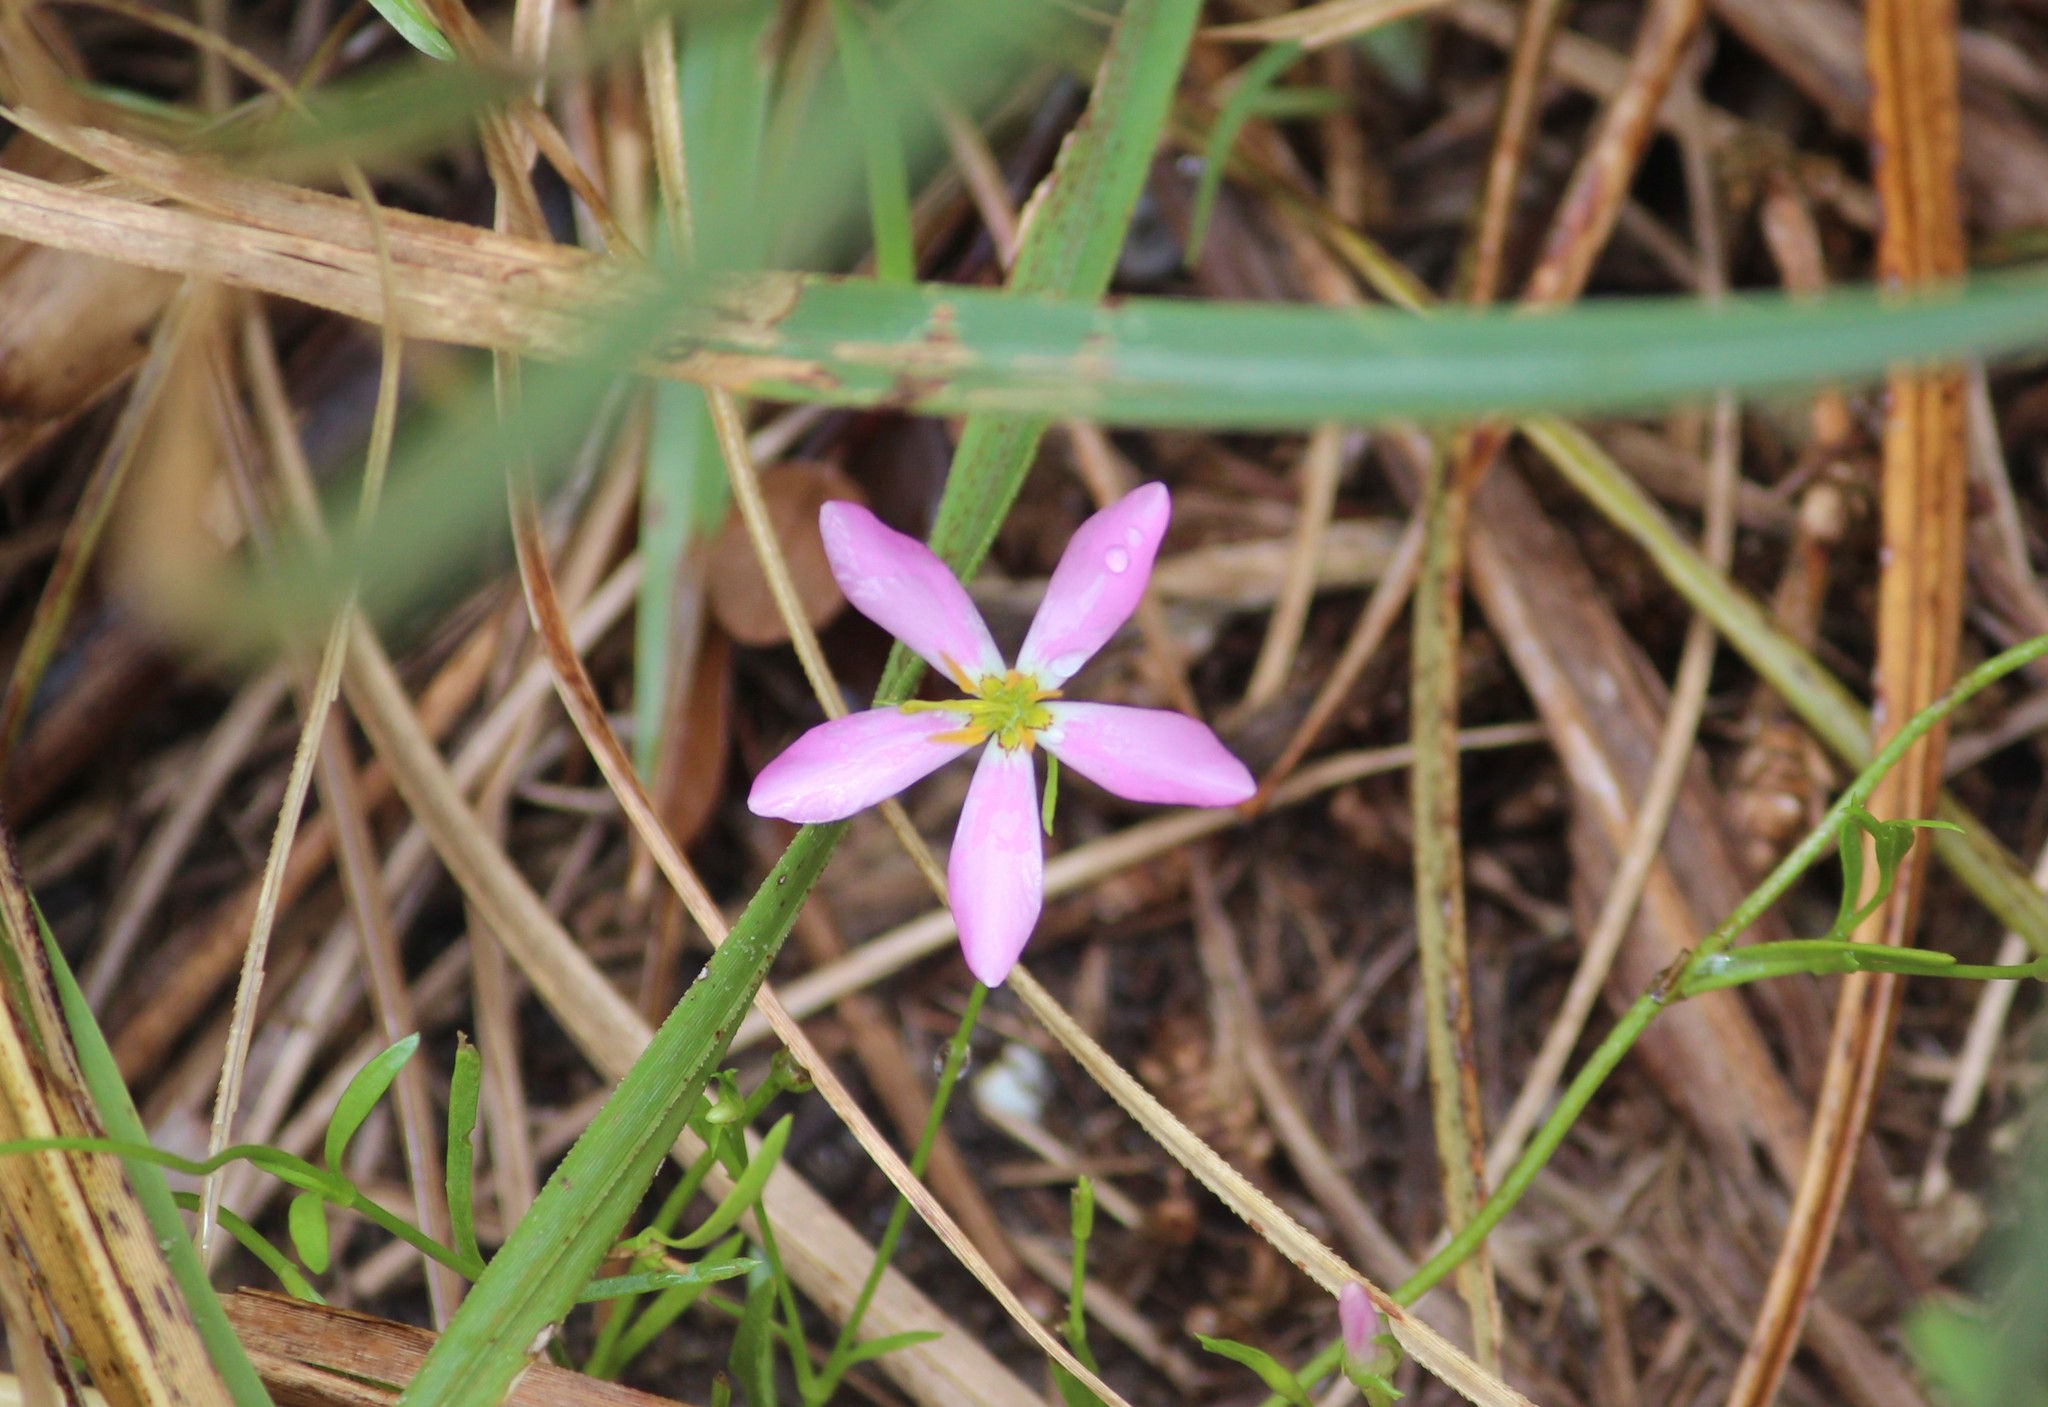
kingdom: Plantae
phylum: Tracheophyta
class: Magnoliopsida
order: Gentianales
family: Gentianaceae
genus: Sabatia
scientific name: Sabatia stellaris
